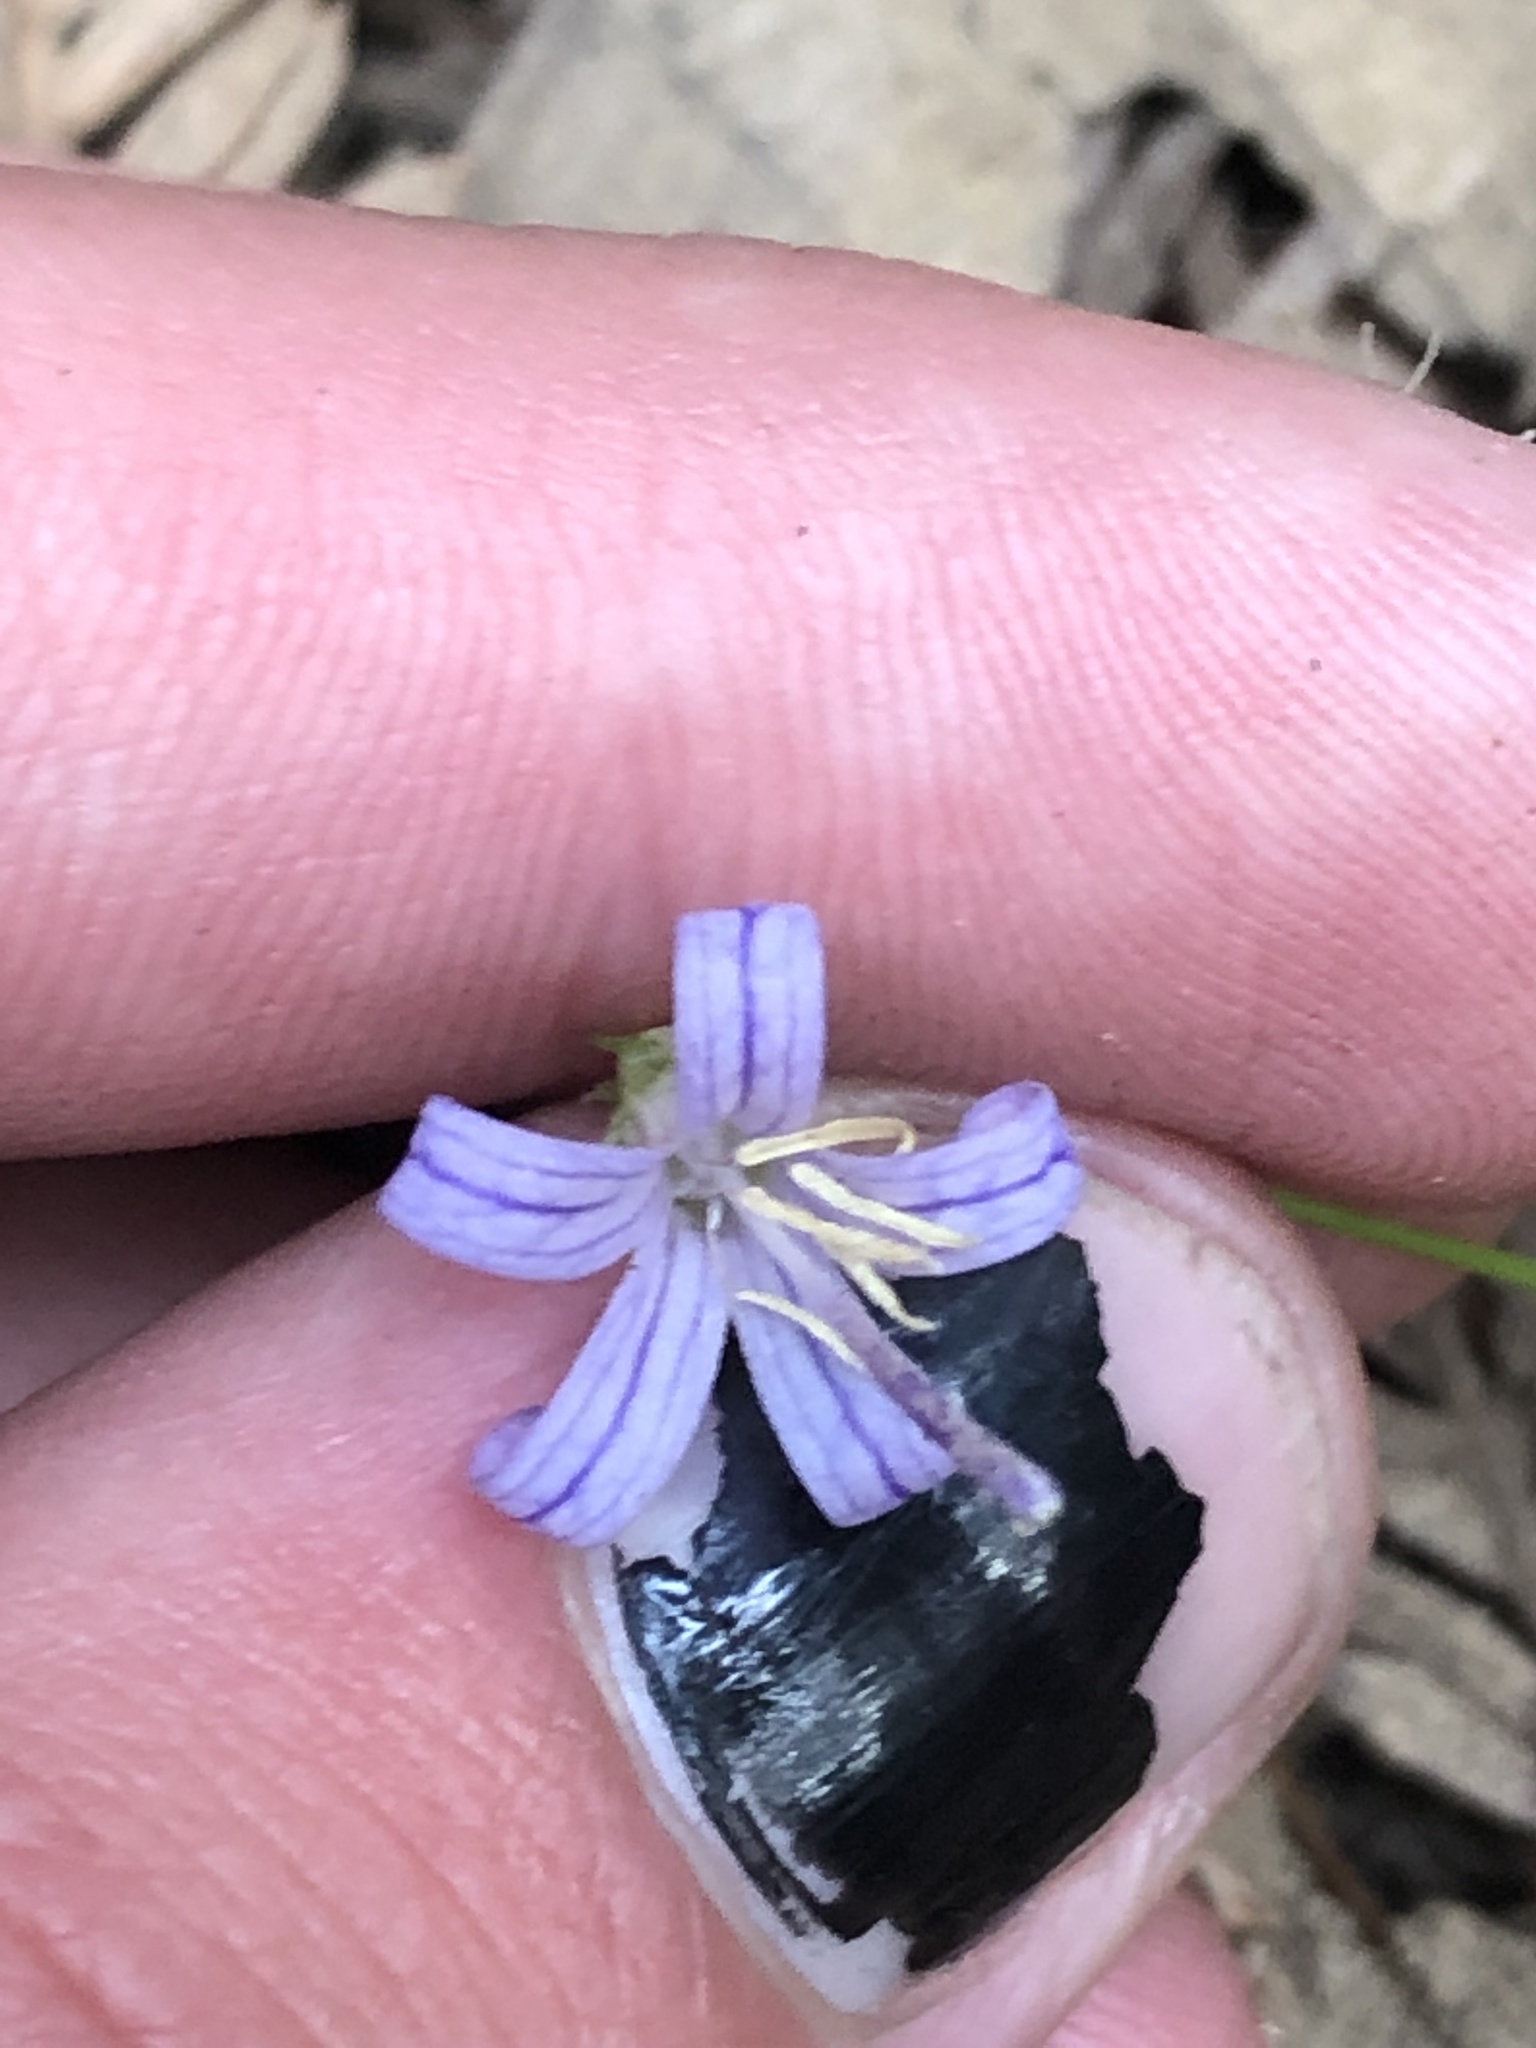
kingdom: Plantae
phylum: Tracheophyta
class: Magnoliopsida
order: Asterales
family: Campanulaceae
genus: Smithiastrum
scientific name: Smithiastrum prenanthoides
